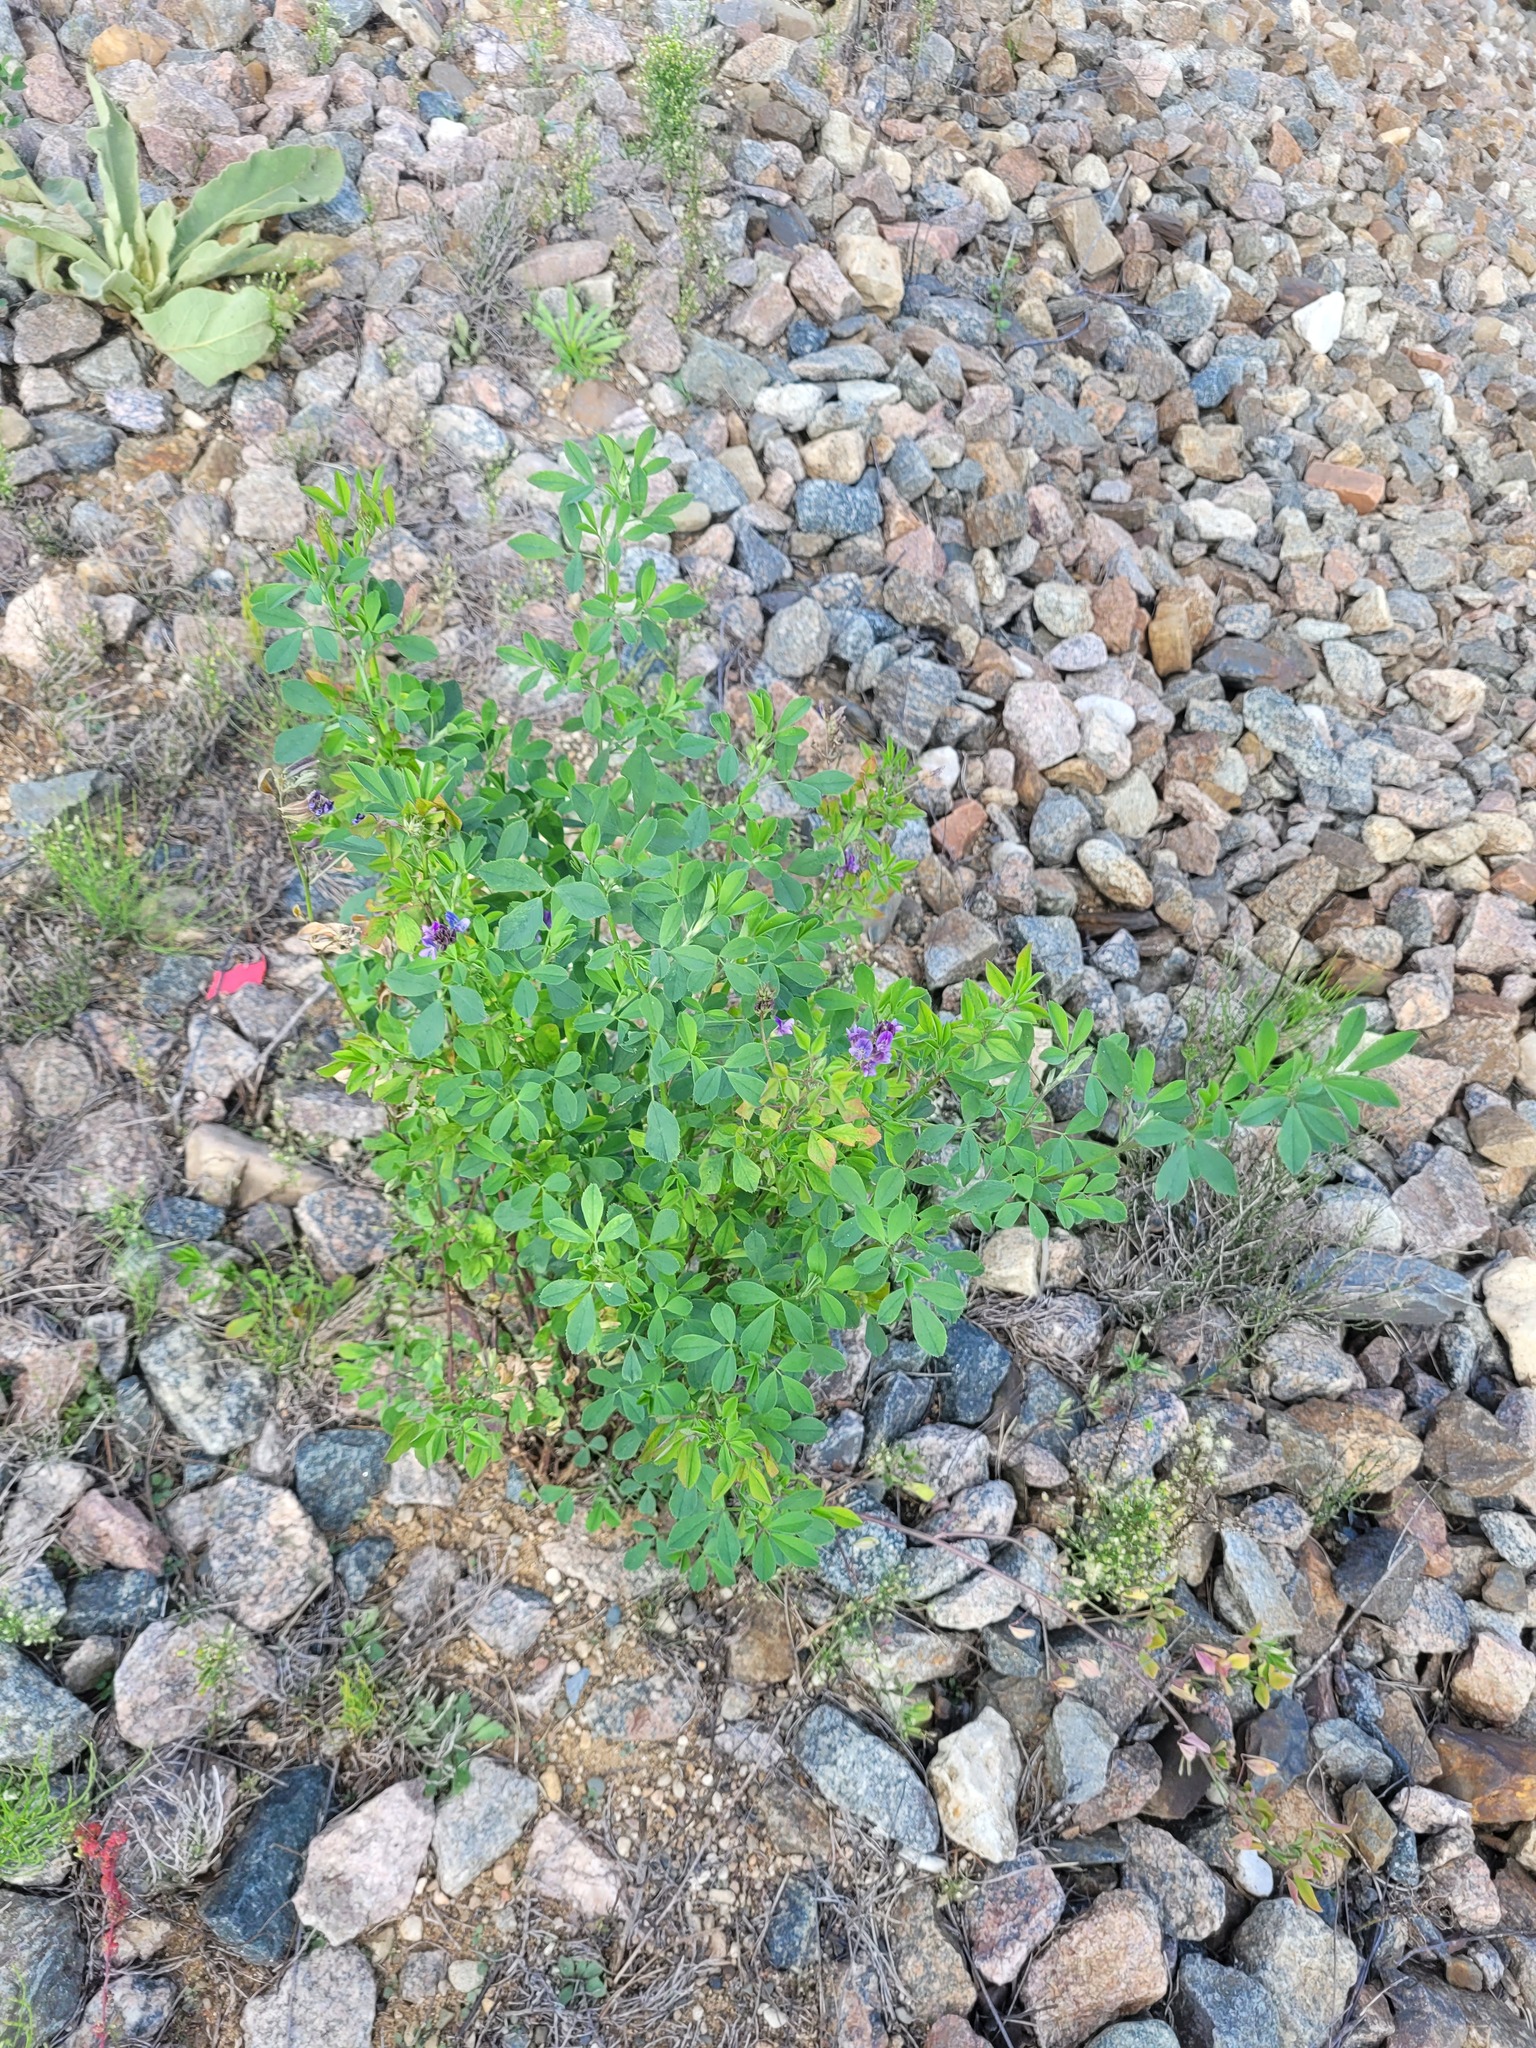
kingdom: Plantae
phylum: Tracheophyta
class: Magnoliopsida
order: Fabales
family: Fabaceae
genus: Medicago
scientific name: Medicago varia
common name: Sand lucerne
